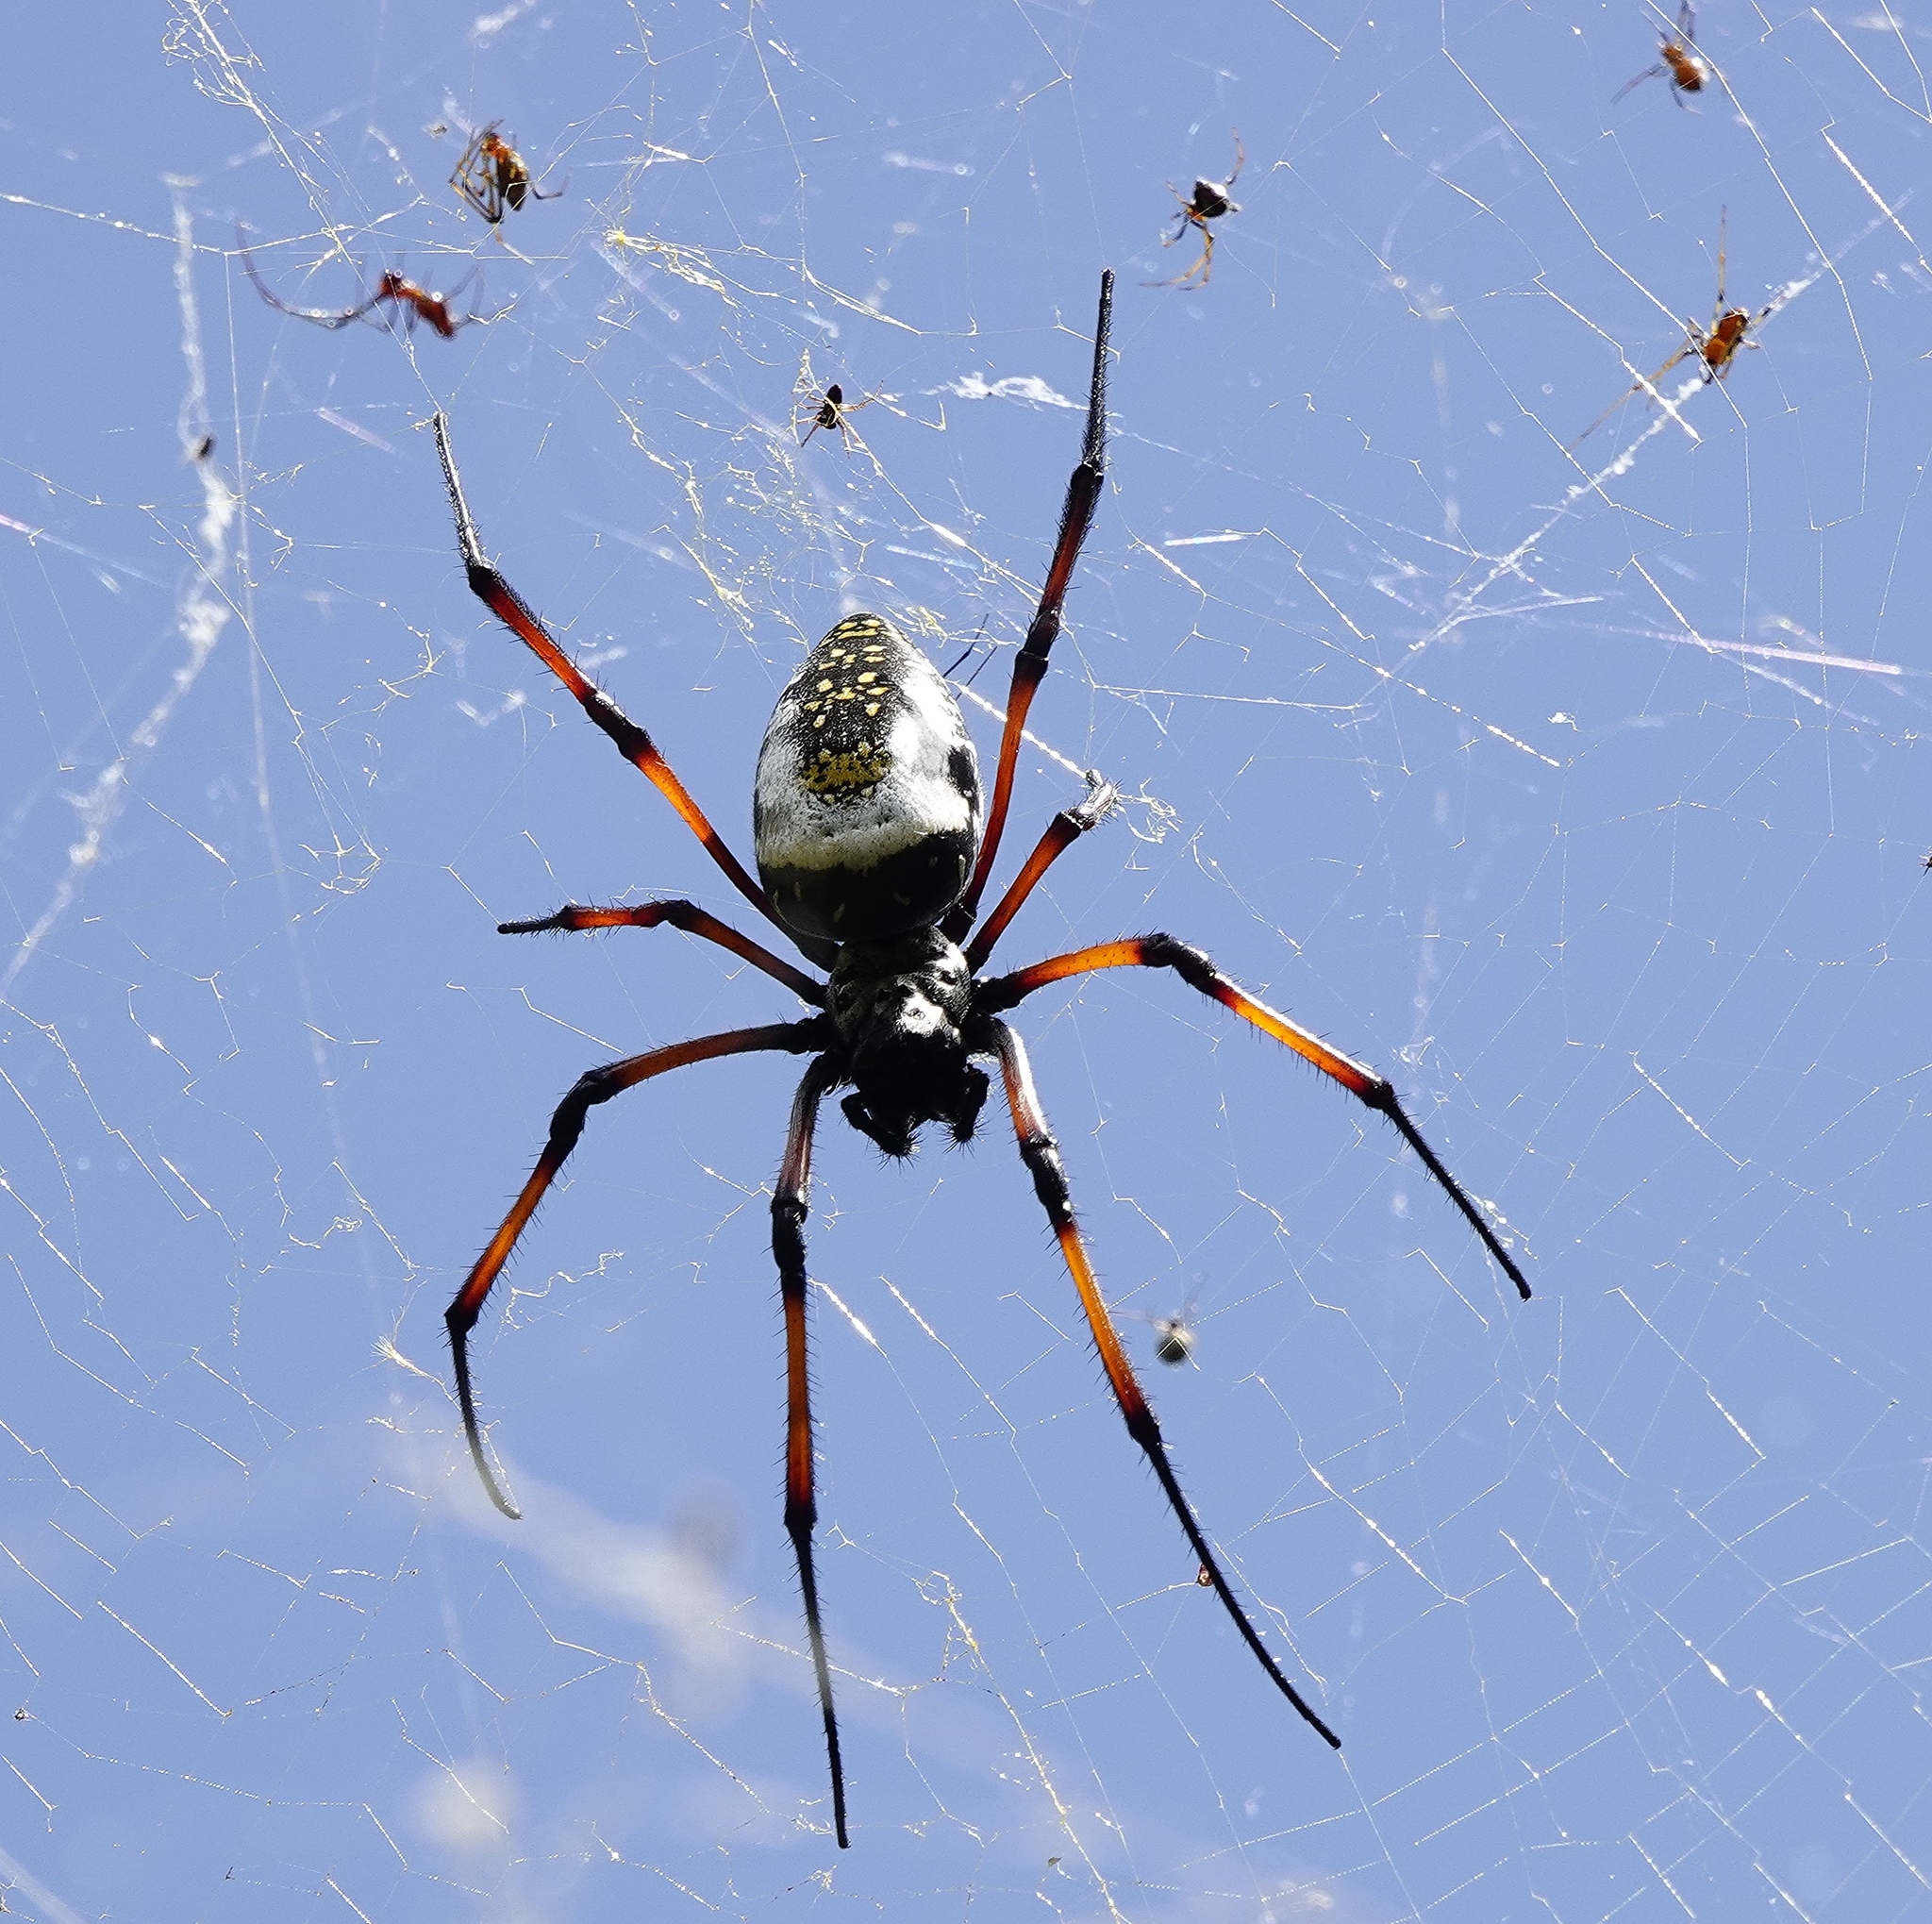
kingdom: Animalia
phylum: Arthropoda
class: Arachnida
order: Araneae
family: Araneidae
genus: Trichonephila
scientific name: Trichonephila inaurata
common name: Red-legged golden orb weaver
